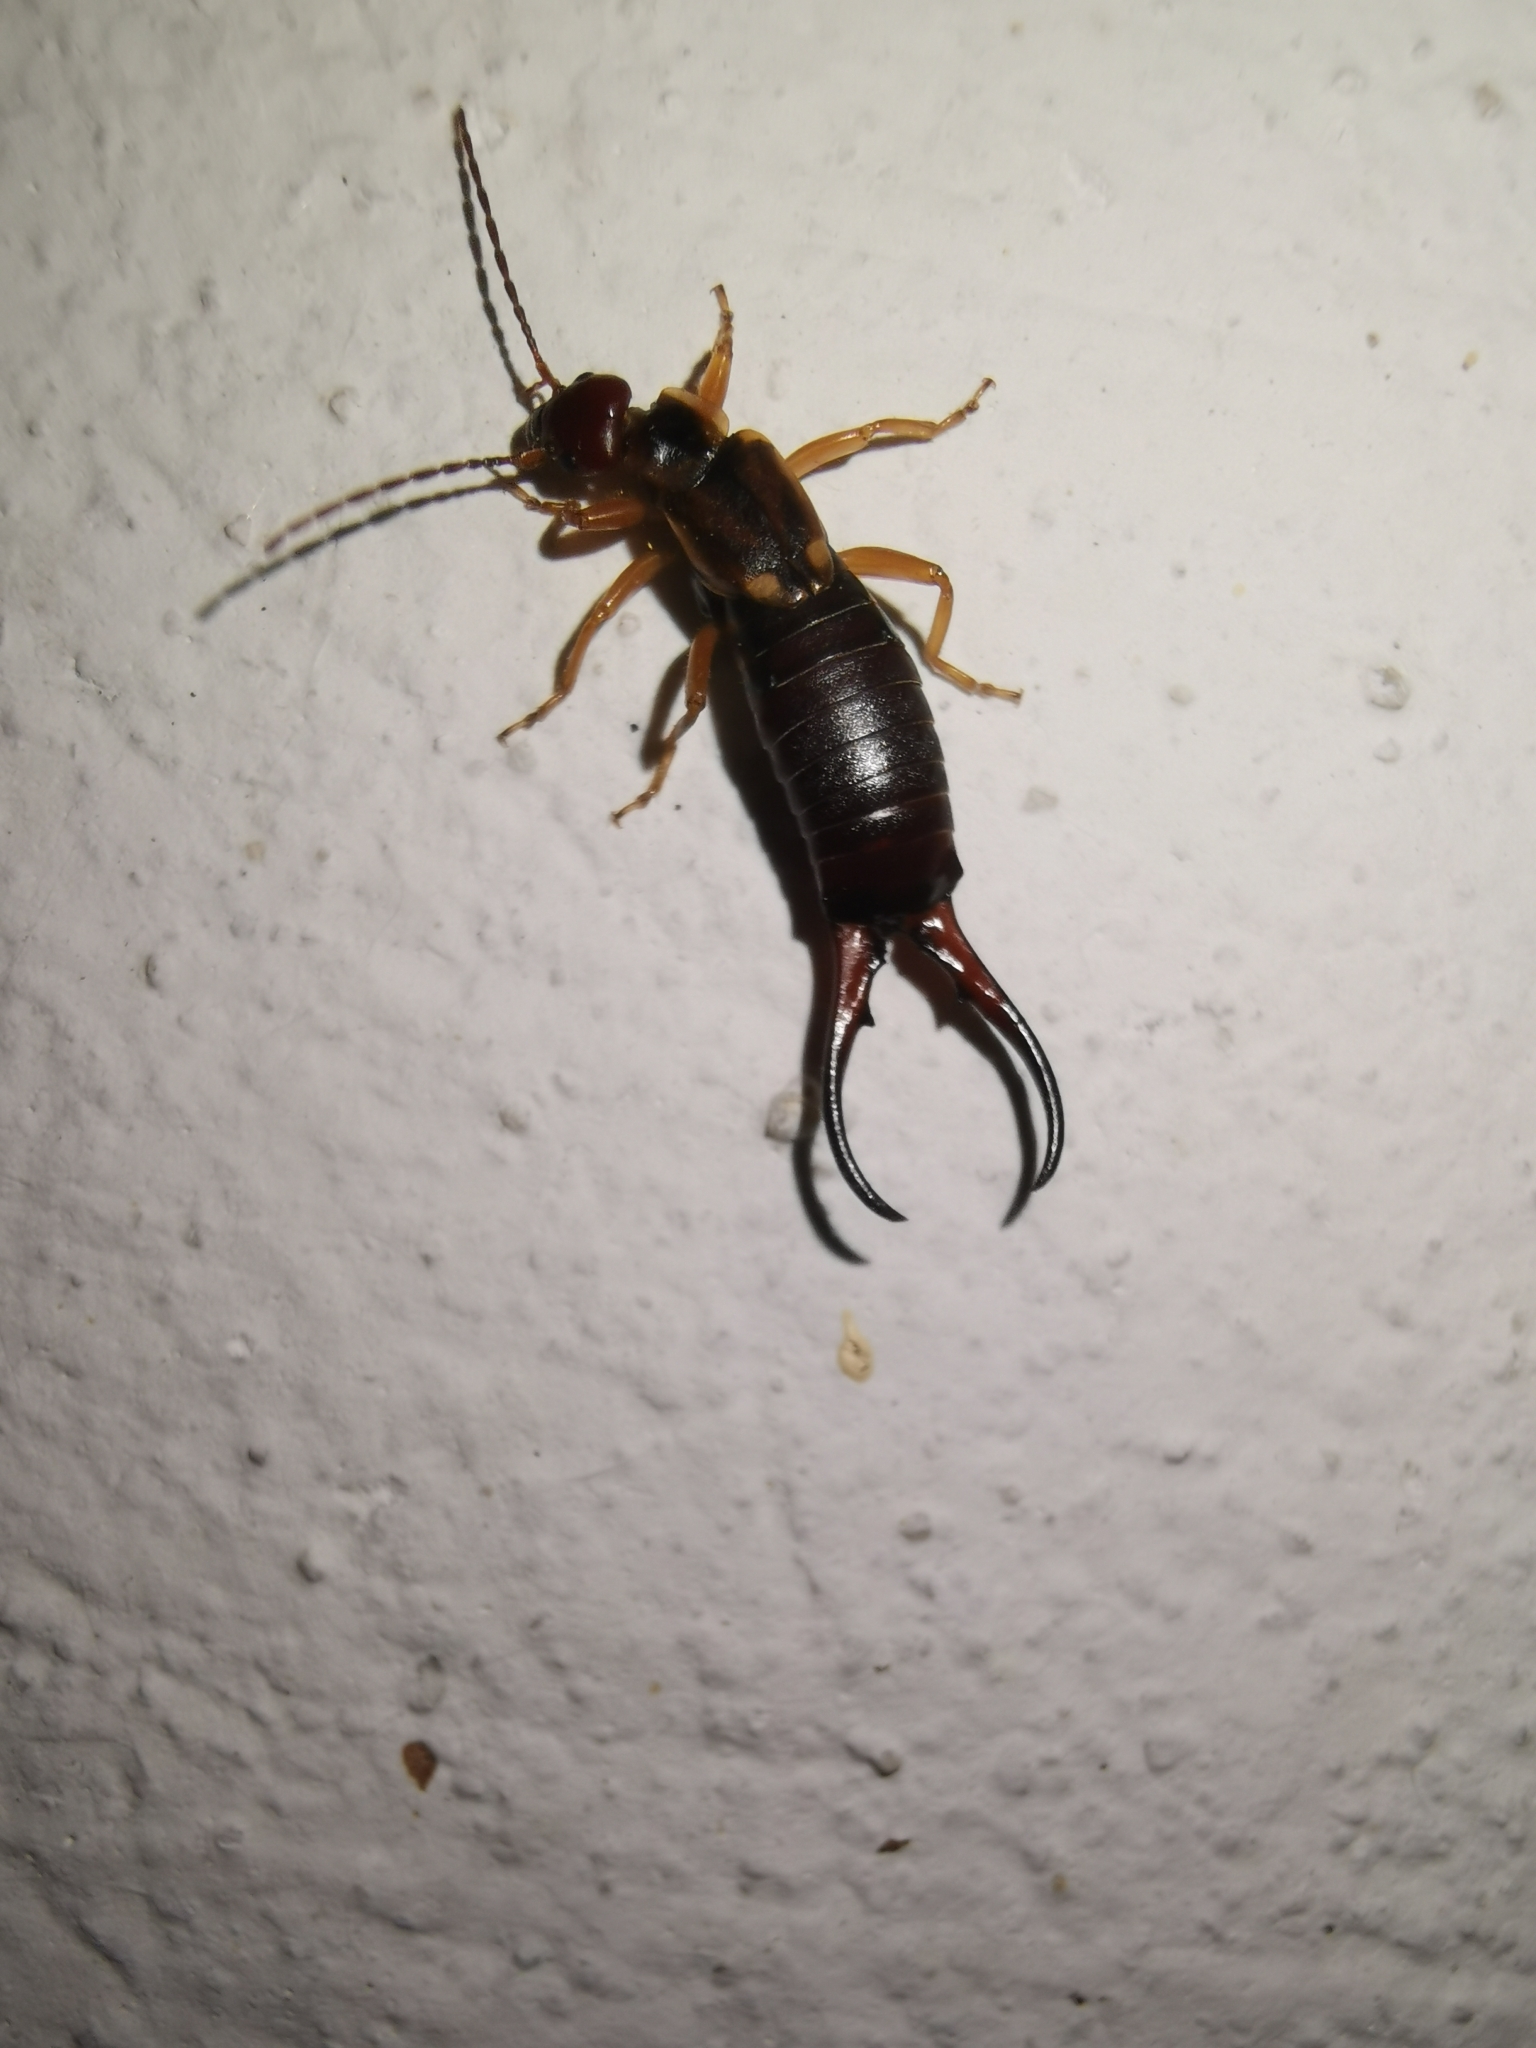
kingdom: Animalia
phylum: Arthropoda
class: Insecta
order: Dermaptera
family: Forficulidae
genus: Forficula
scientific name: Forficula
